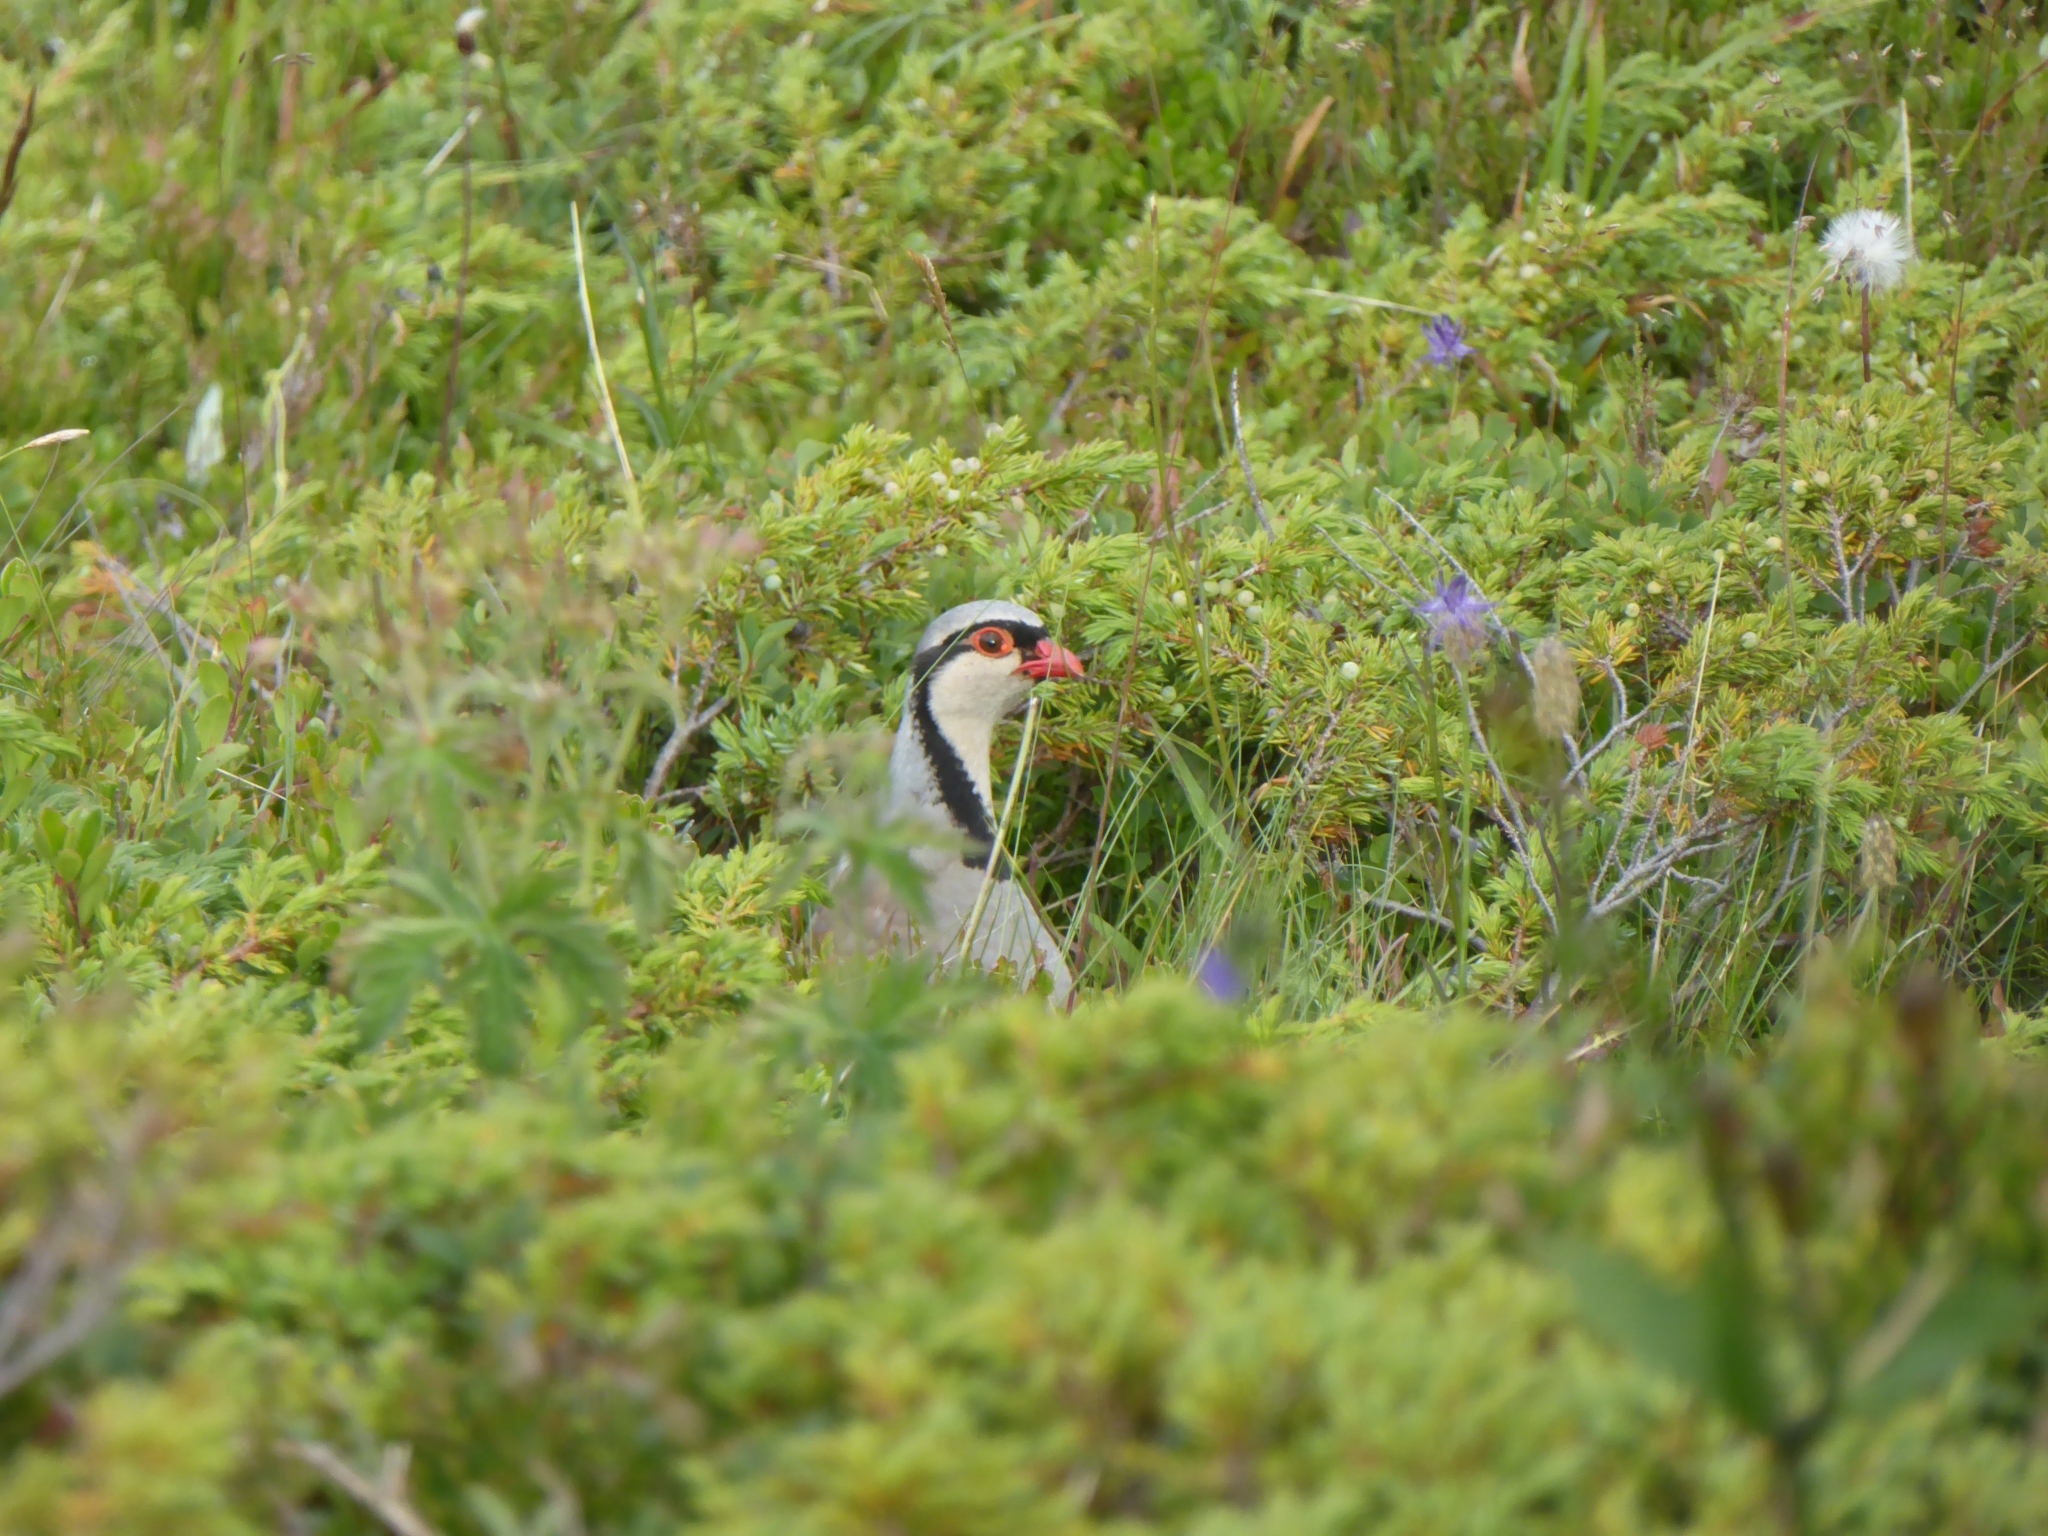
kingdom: Animalia
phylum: Chordata
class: Aves
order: Galliformes
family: Phasianidae
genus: Alectoris
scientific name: Alectoris graeca
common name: Rock partridge
